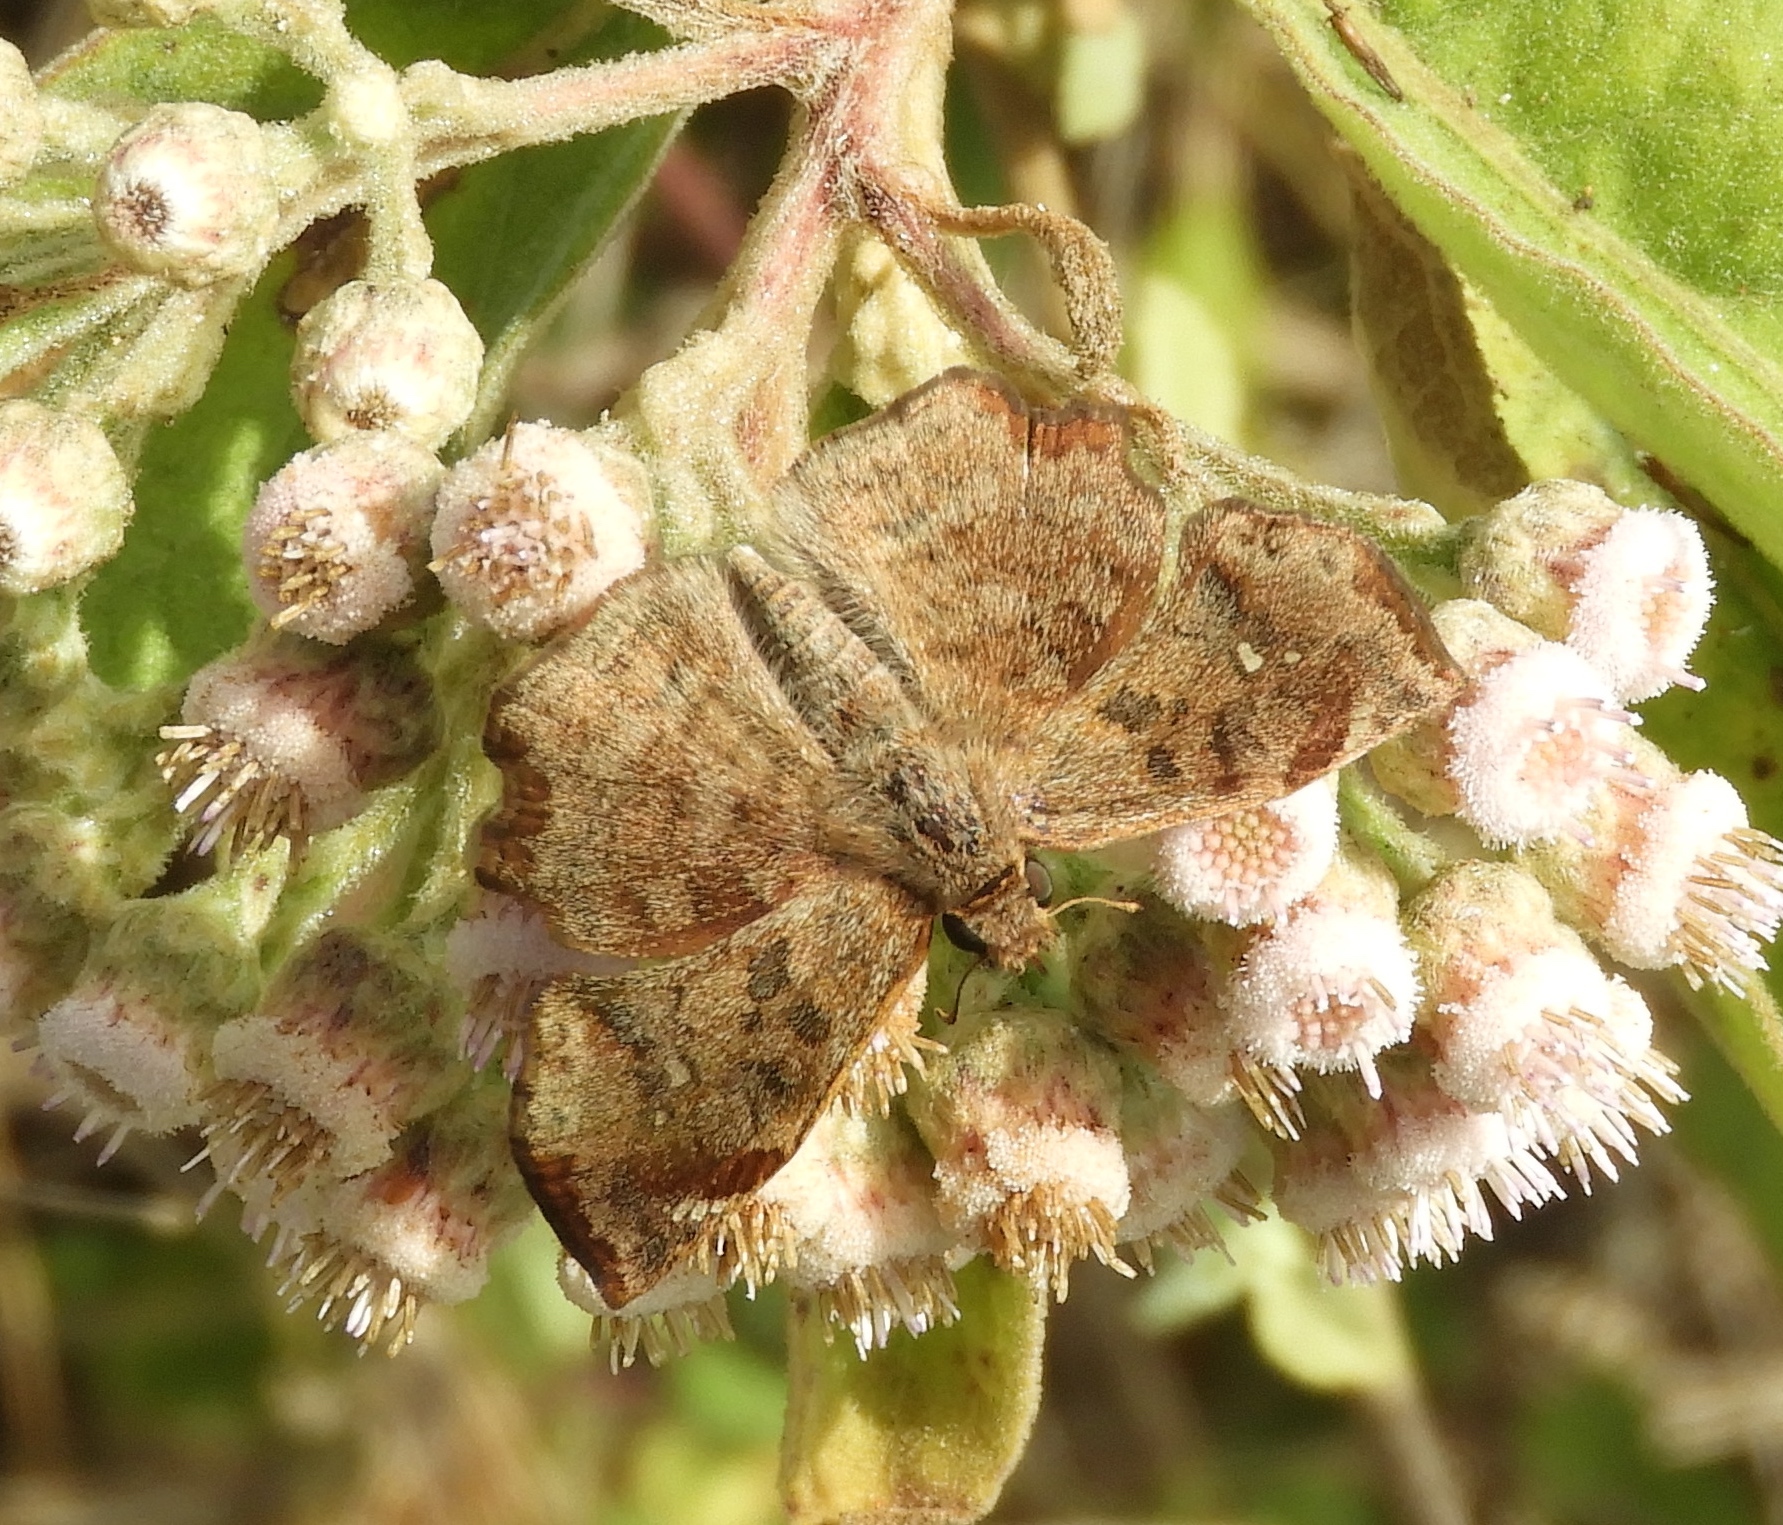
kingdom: Animalia
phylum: Arthropoda
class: Insecta
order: Lepidoptera
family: Hesperiidae
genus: Antigonus
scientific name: Antigonus erosus
